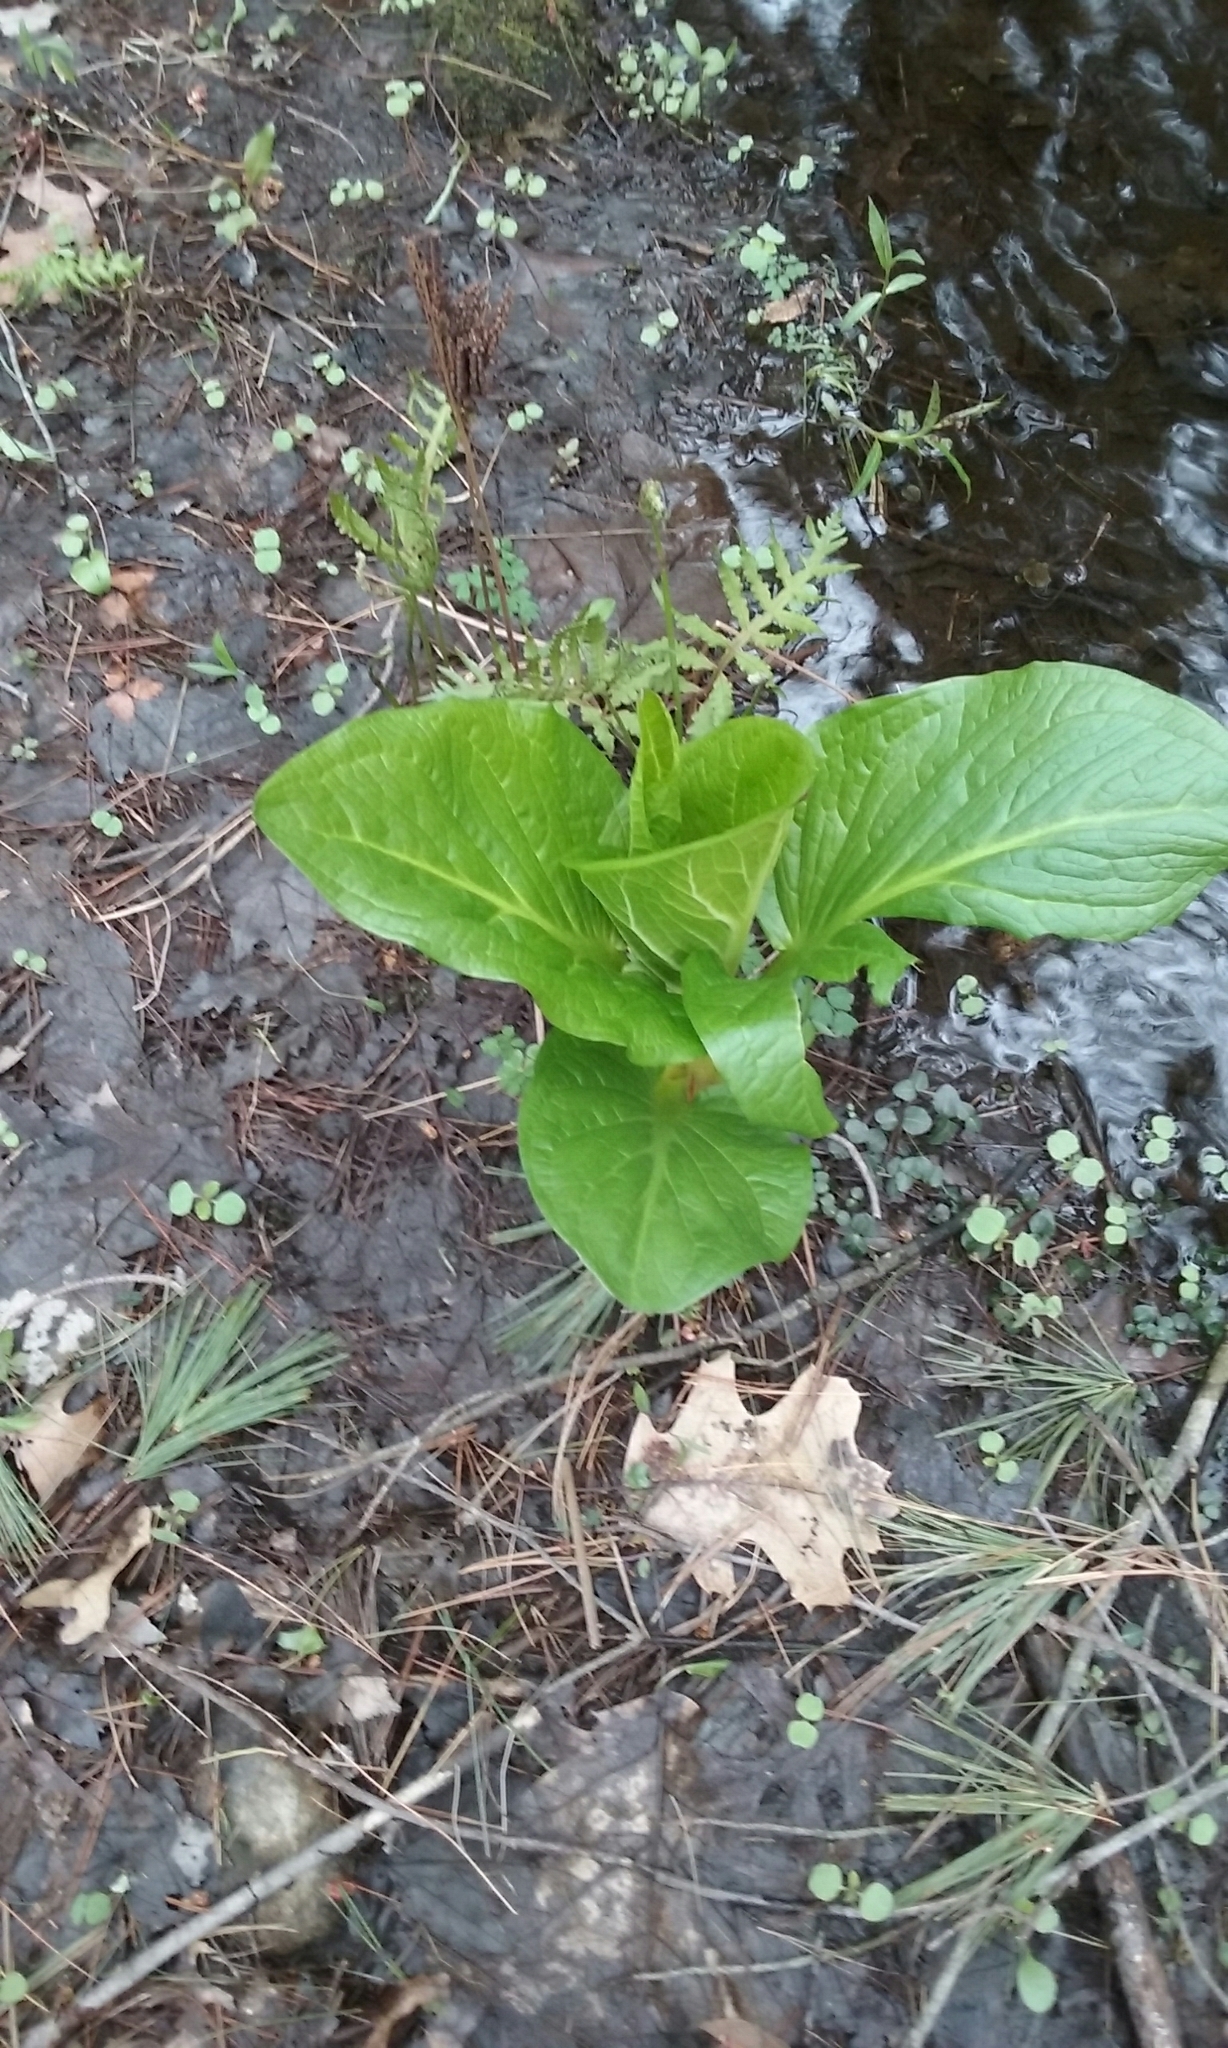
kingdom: Plantae
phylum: Tracheophyta
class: Liliopsida
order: Alismatales
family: Araceae
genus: Symplocarpus
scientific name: Symplocarpus foetidus
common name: Eastern skunk cabbage
